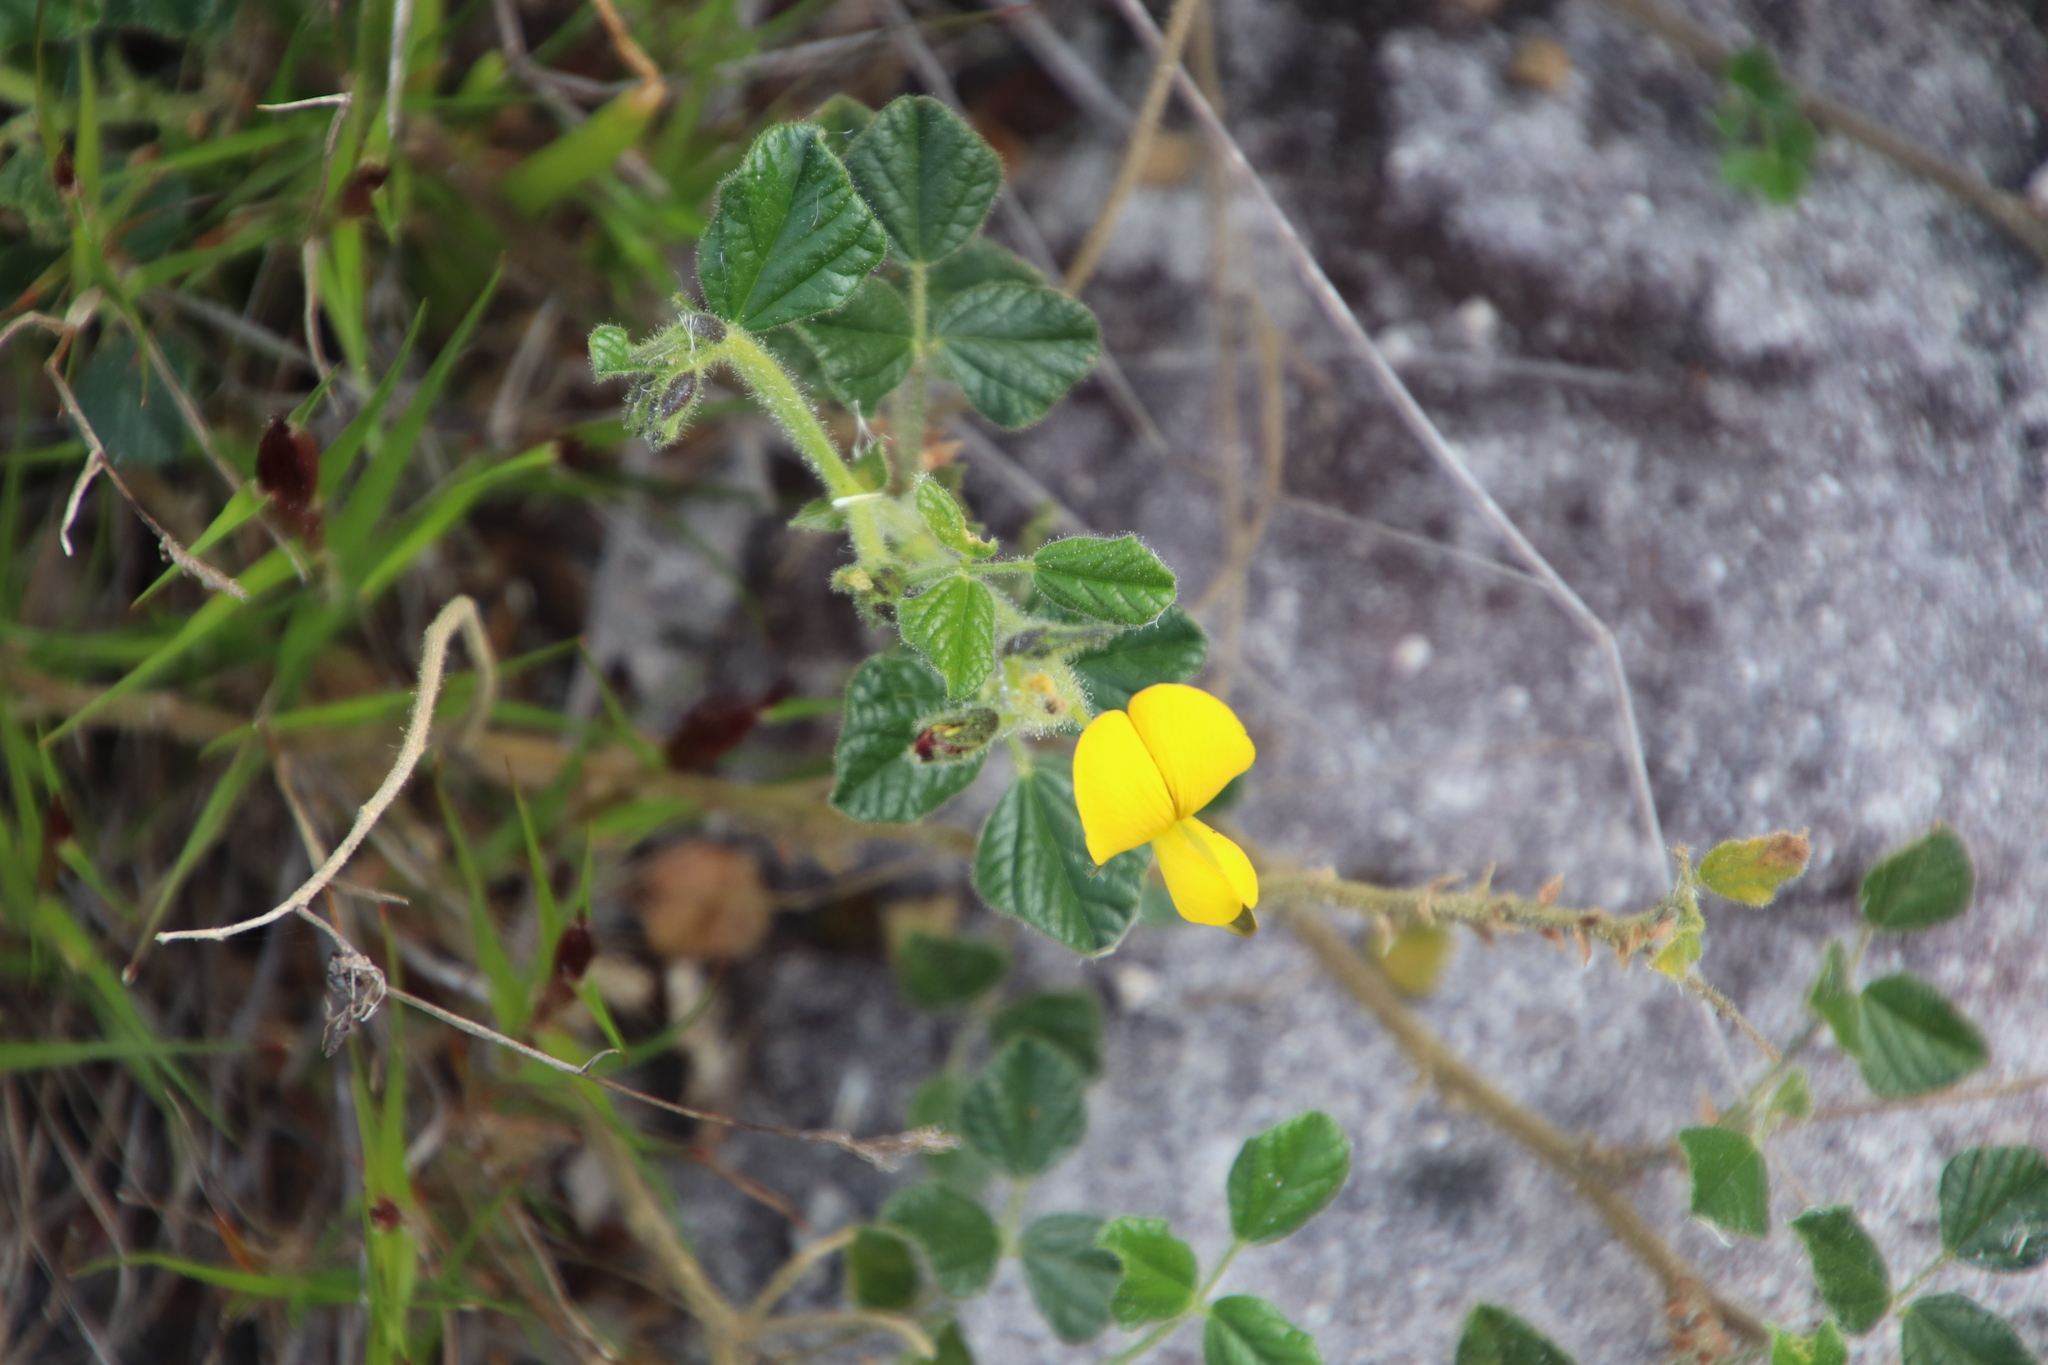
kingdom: Plantae
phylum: Tracheophyta
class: Magnoliopsida
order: Fabales
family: Fabaceae
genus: Bolusafra
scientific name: Bolusafra bituminosa
